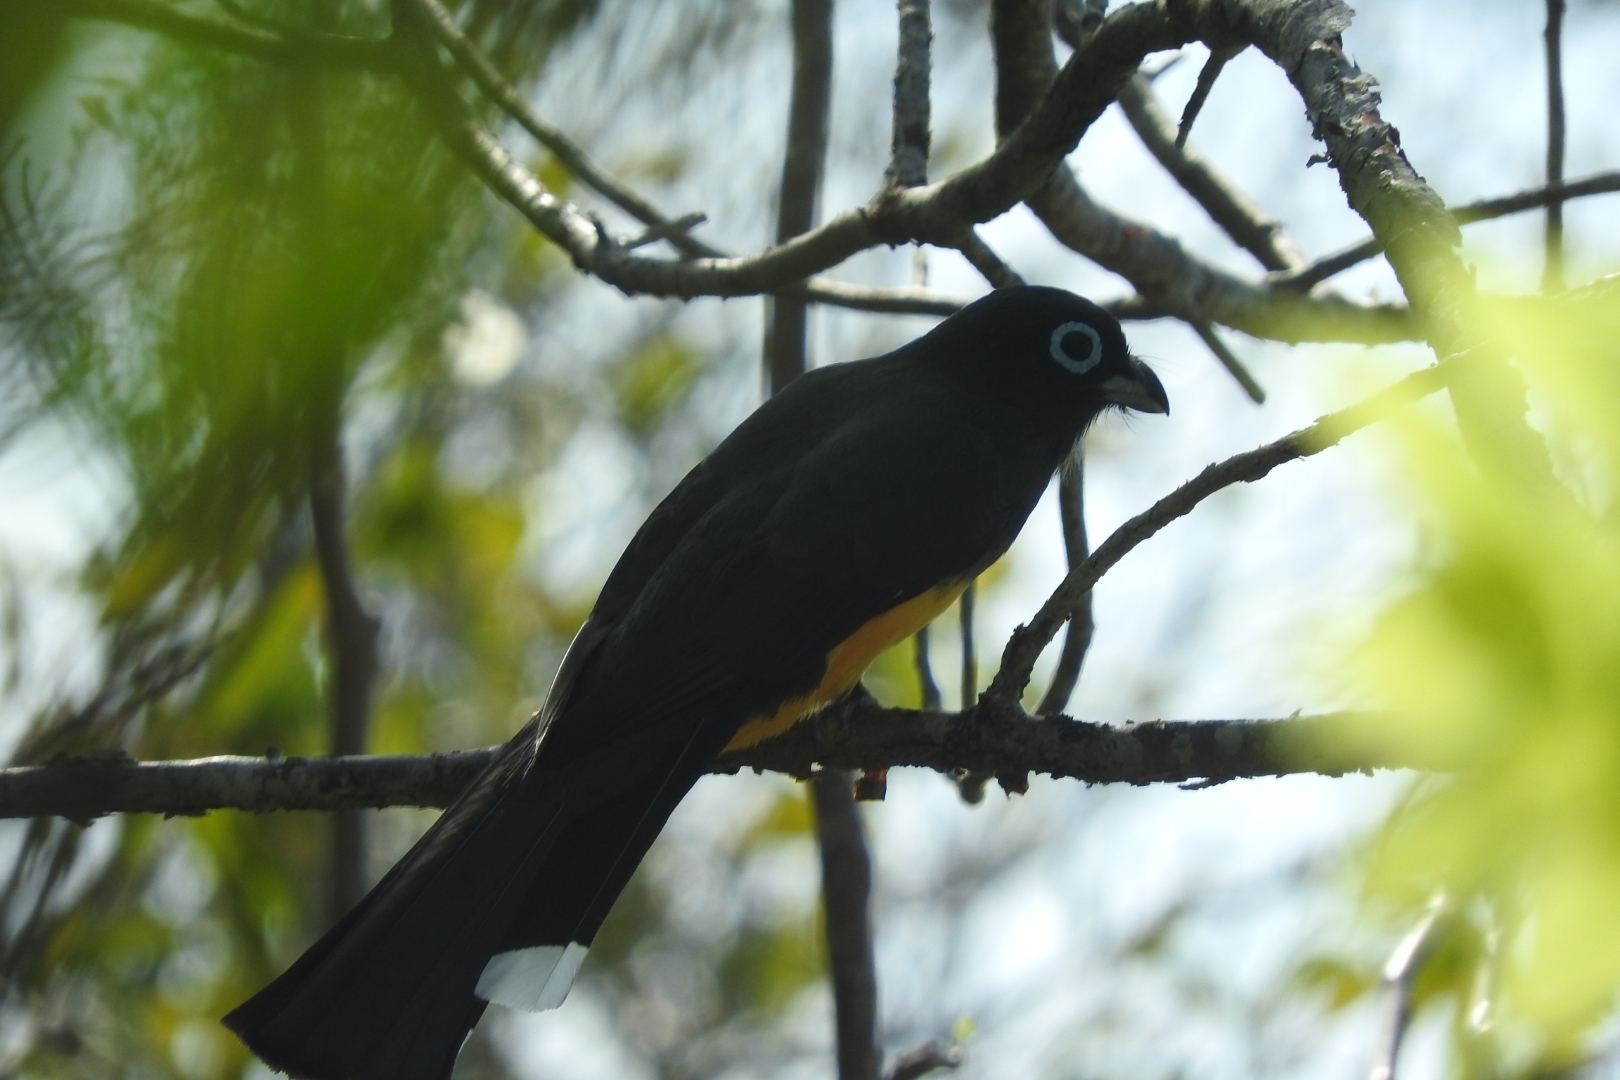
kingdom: Animalia
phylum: Chordata
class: Aves
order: Trogoniformes
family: Trogonidae
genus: Trogon
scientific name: Trogon melanocephalus
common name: Black-headed trogon
